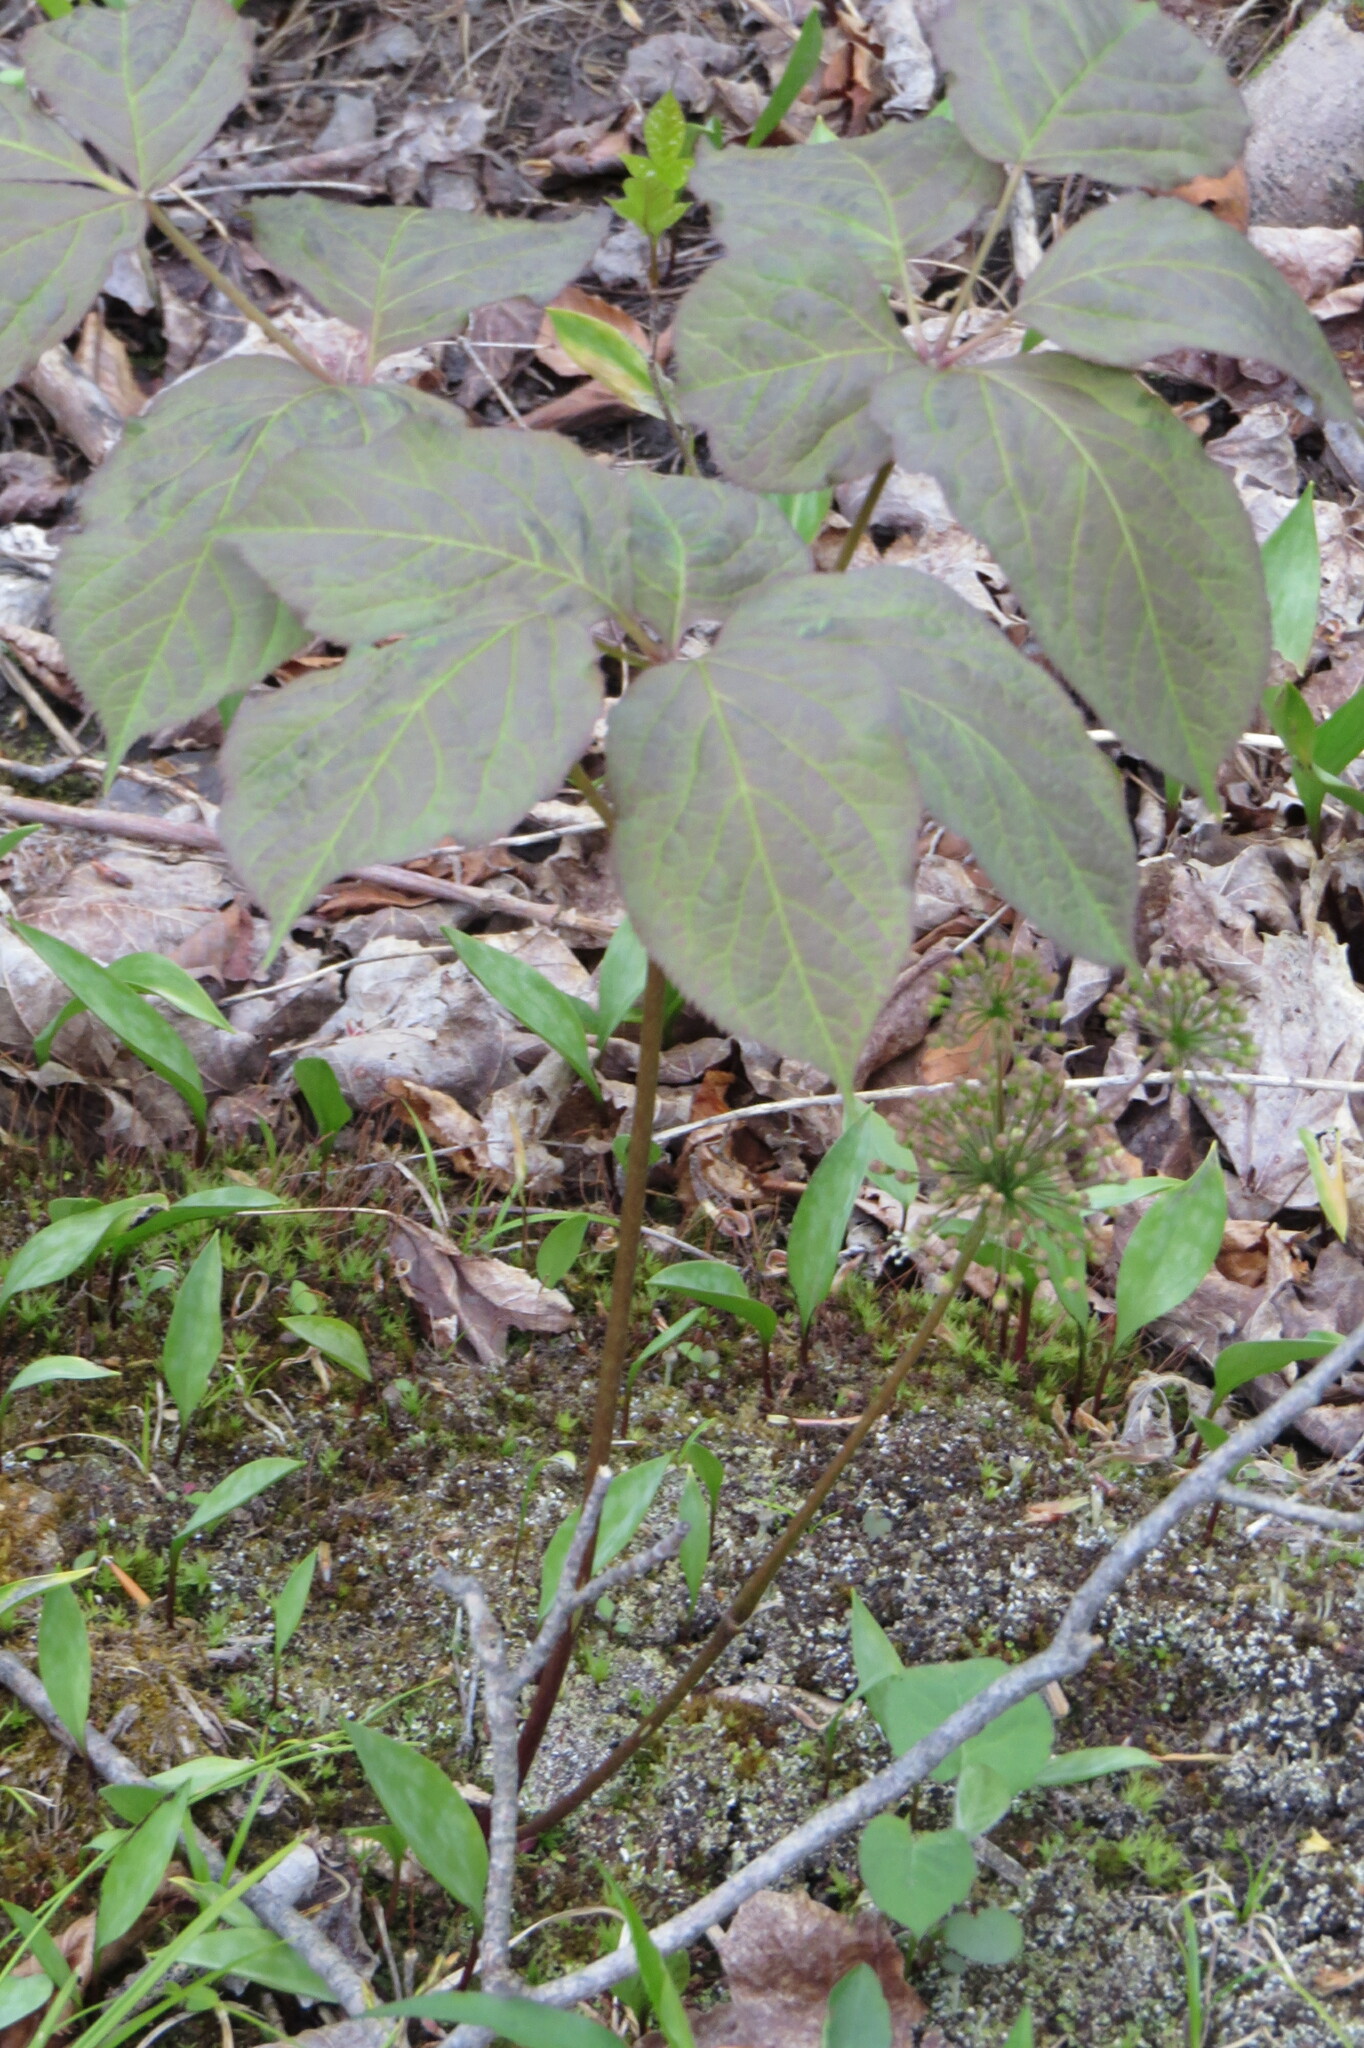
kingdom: Plantae
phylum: Tracheophyta
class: Magnoliopsida
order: Apiales
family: Araliaceae
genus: Aralia
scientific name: Aralia nudicaulis
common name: Wild sarsaparilla
